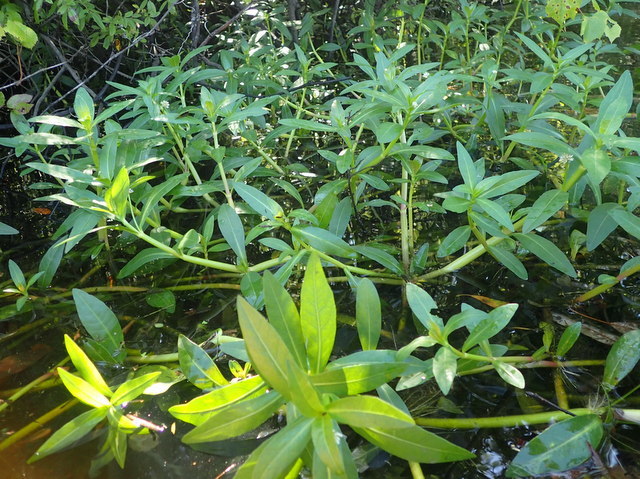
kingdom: Plantae
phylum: Tracheophyta
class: Magnoliopsida
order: Caryophyllales
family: Amaranthaceae
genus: Alternanthera
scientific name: Alternanthera philoxeroides
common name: Alligatorweed
